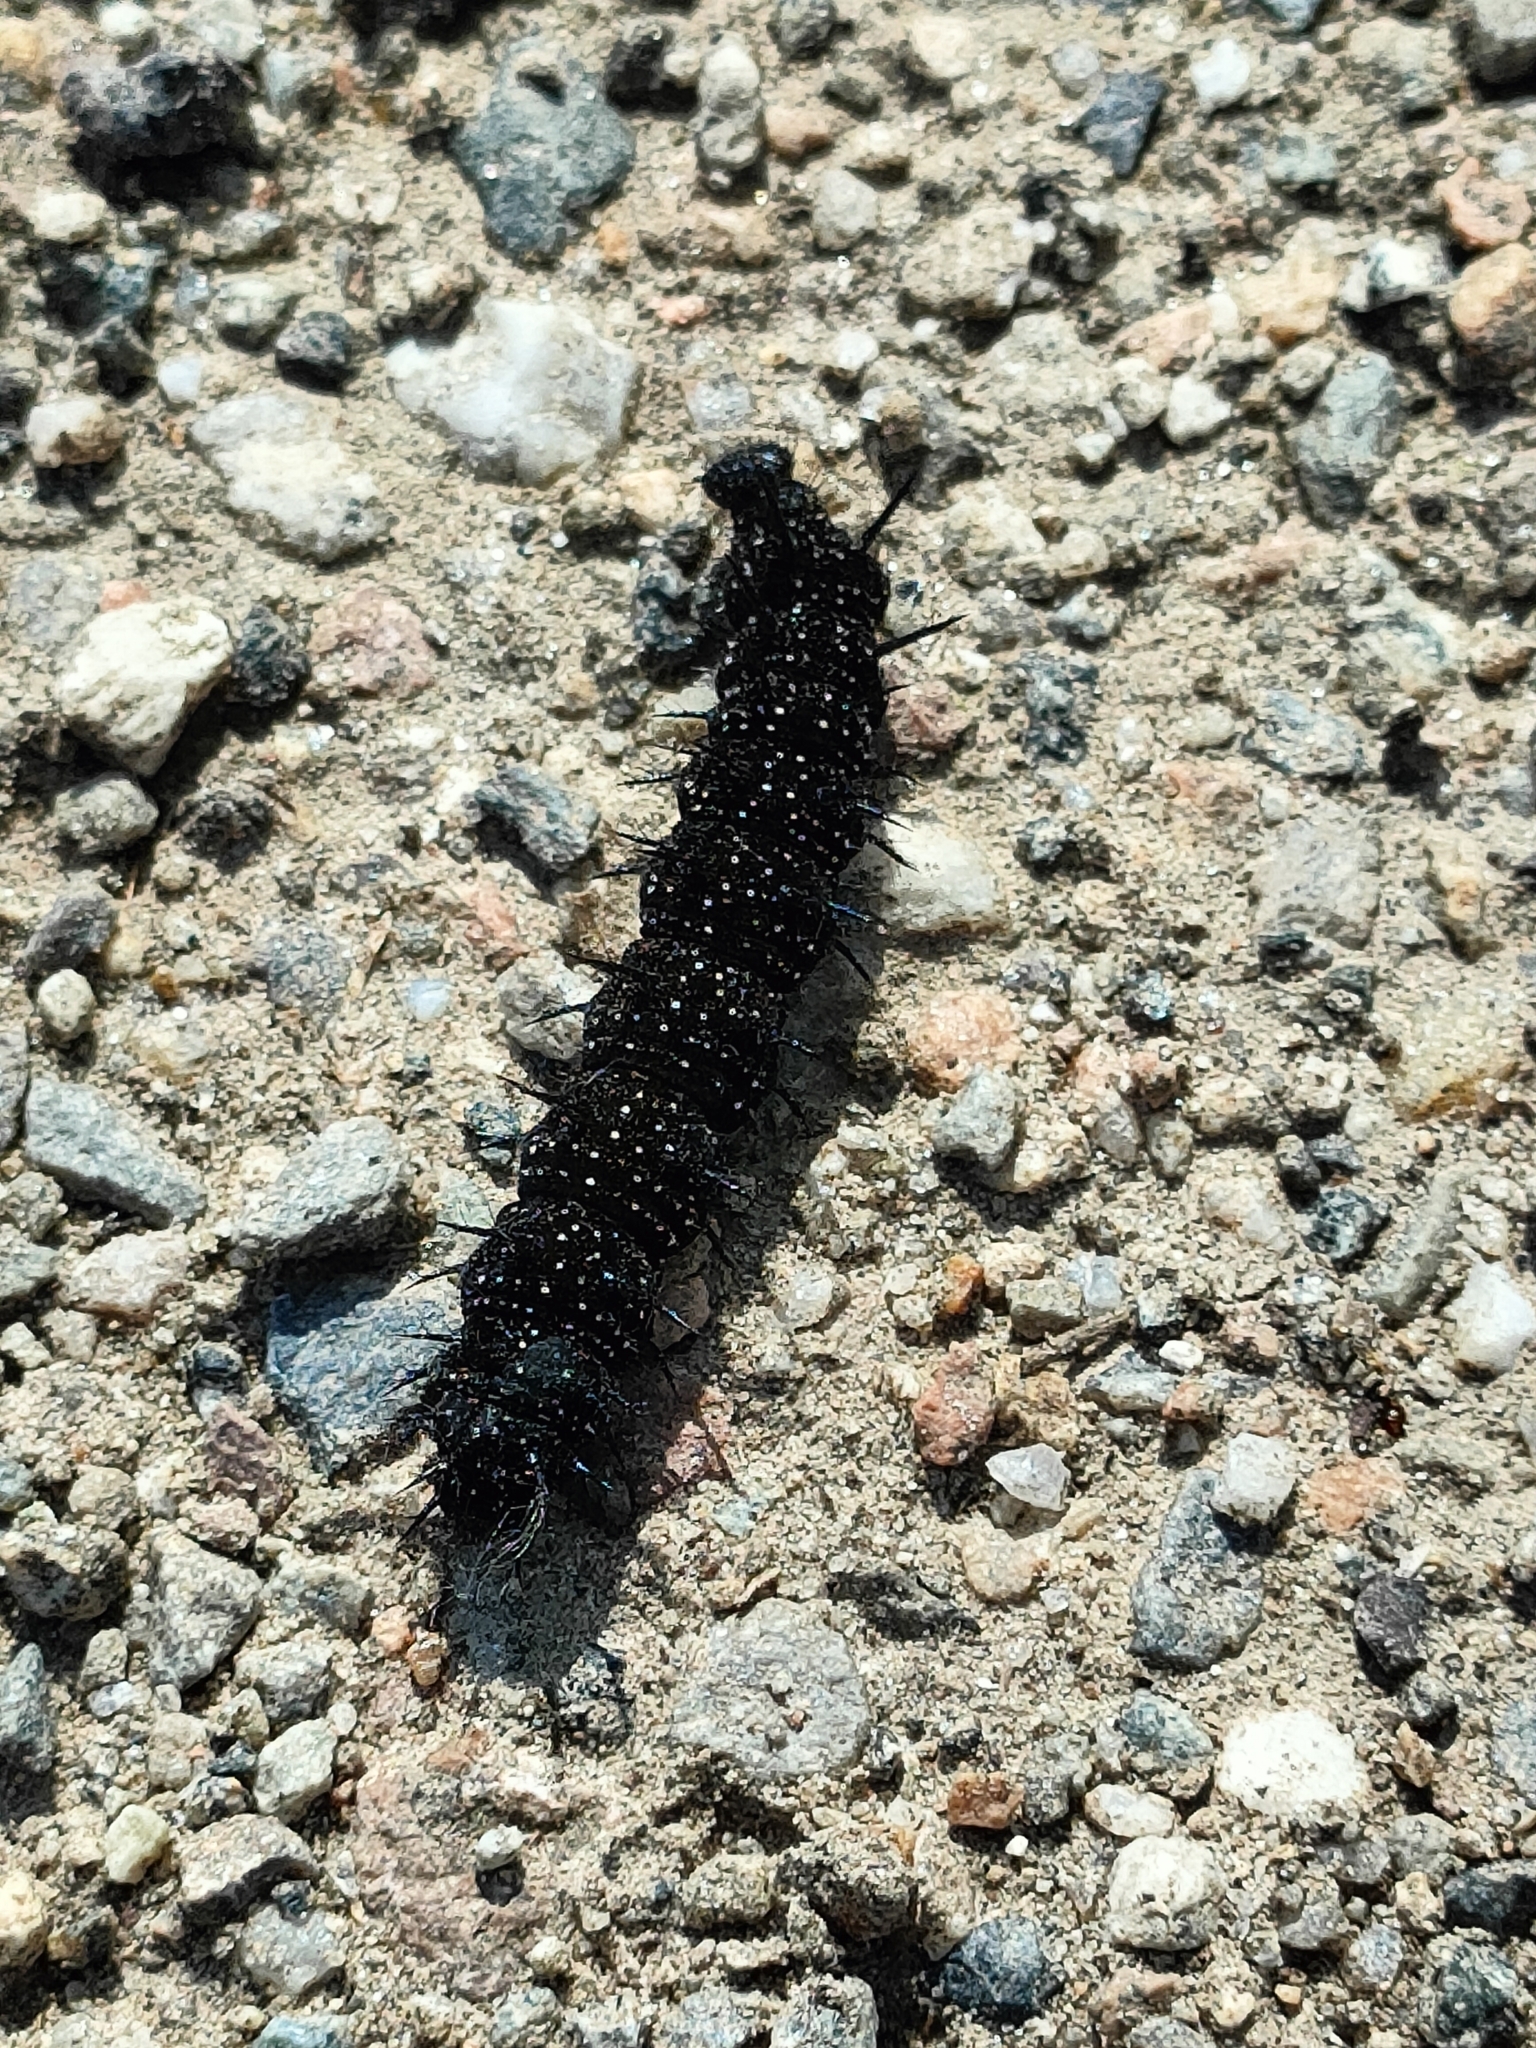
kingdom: Animalia
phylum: Arthropoda
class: Insecta
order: Lepidoptera
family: Nymphalidae
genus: Aglais
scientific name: Aglais io
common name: Peacock
